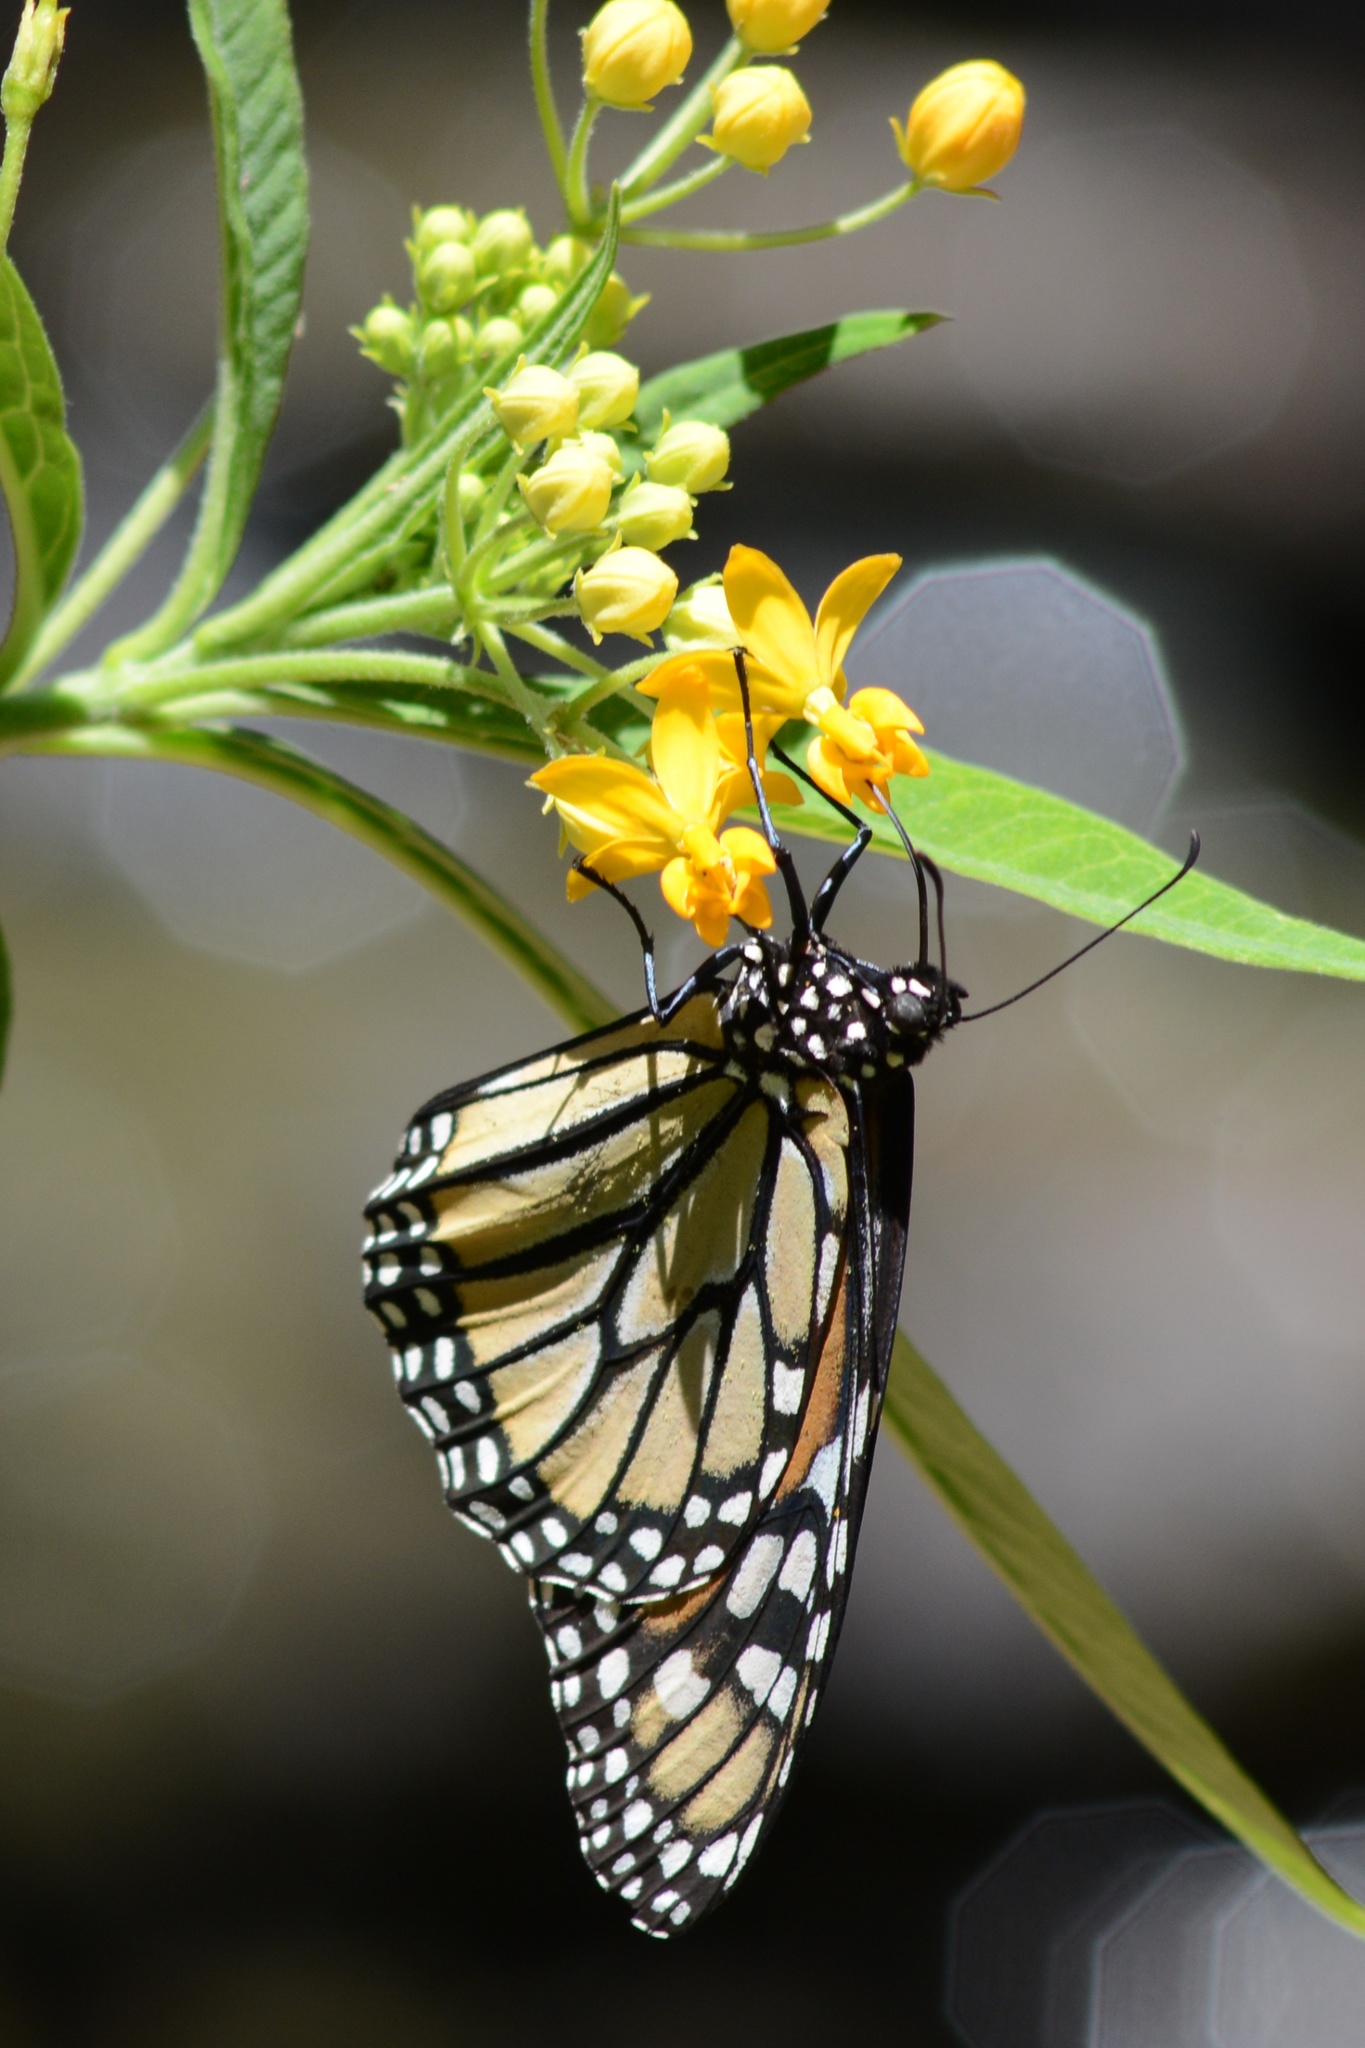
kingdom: Animalia
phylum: Arthropoda
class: Insecta
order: Lepidoptera
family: Nymphalidae
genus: Danaus
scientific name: Danaus plexippus
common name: Monarch
